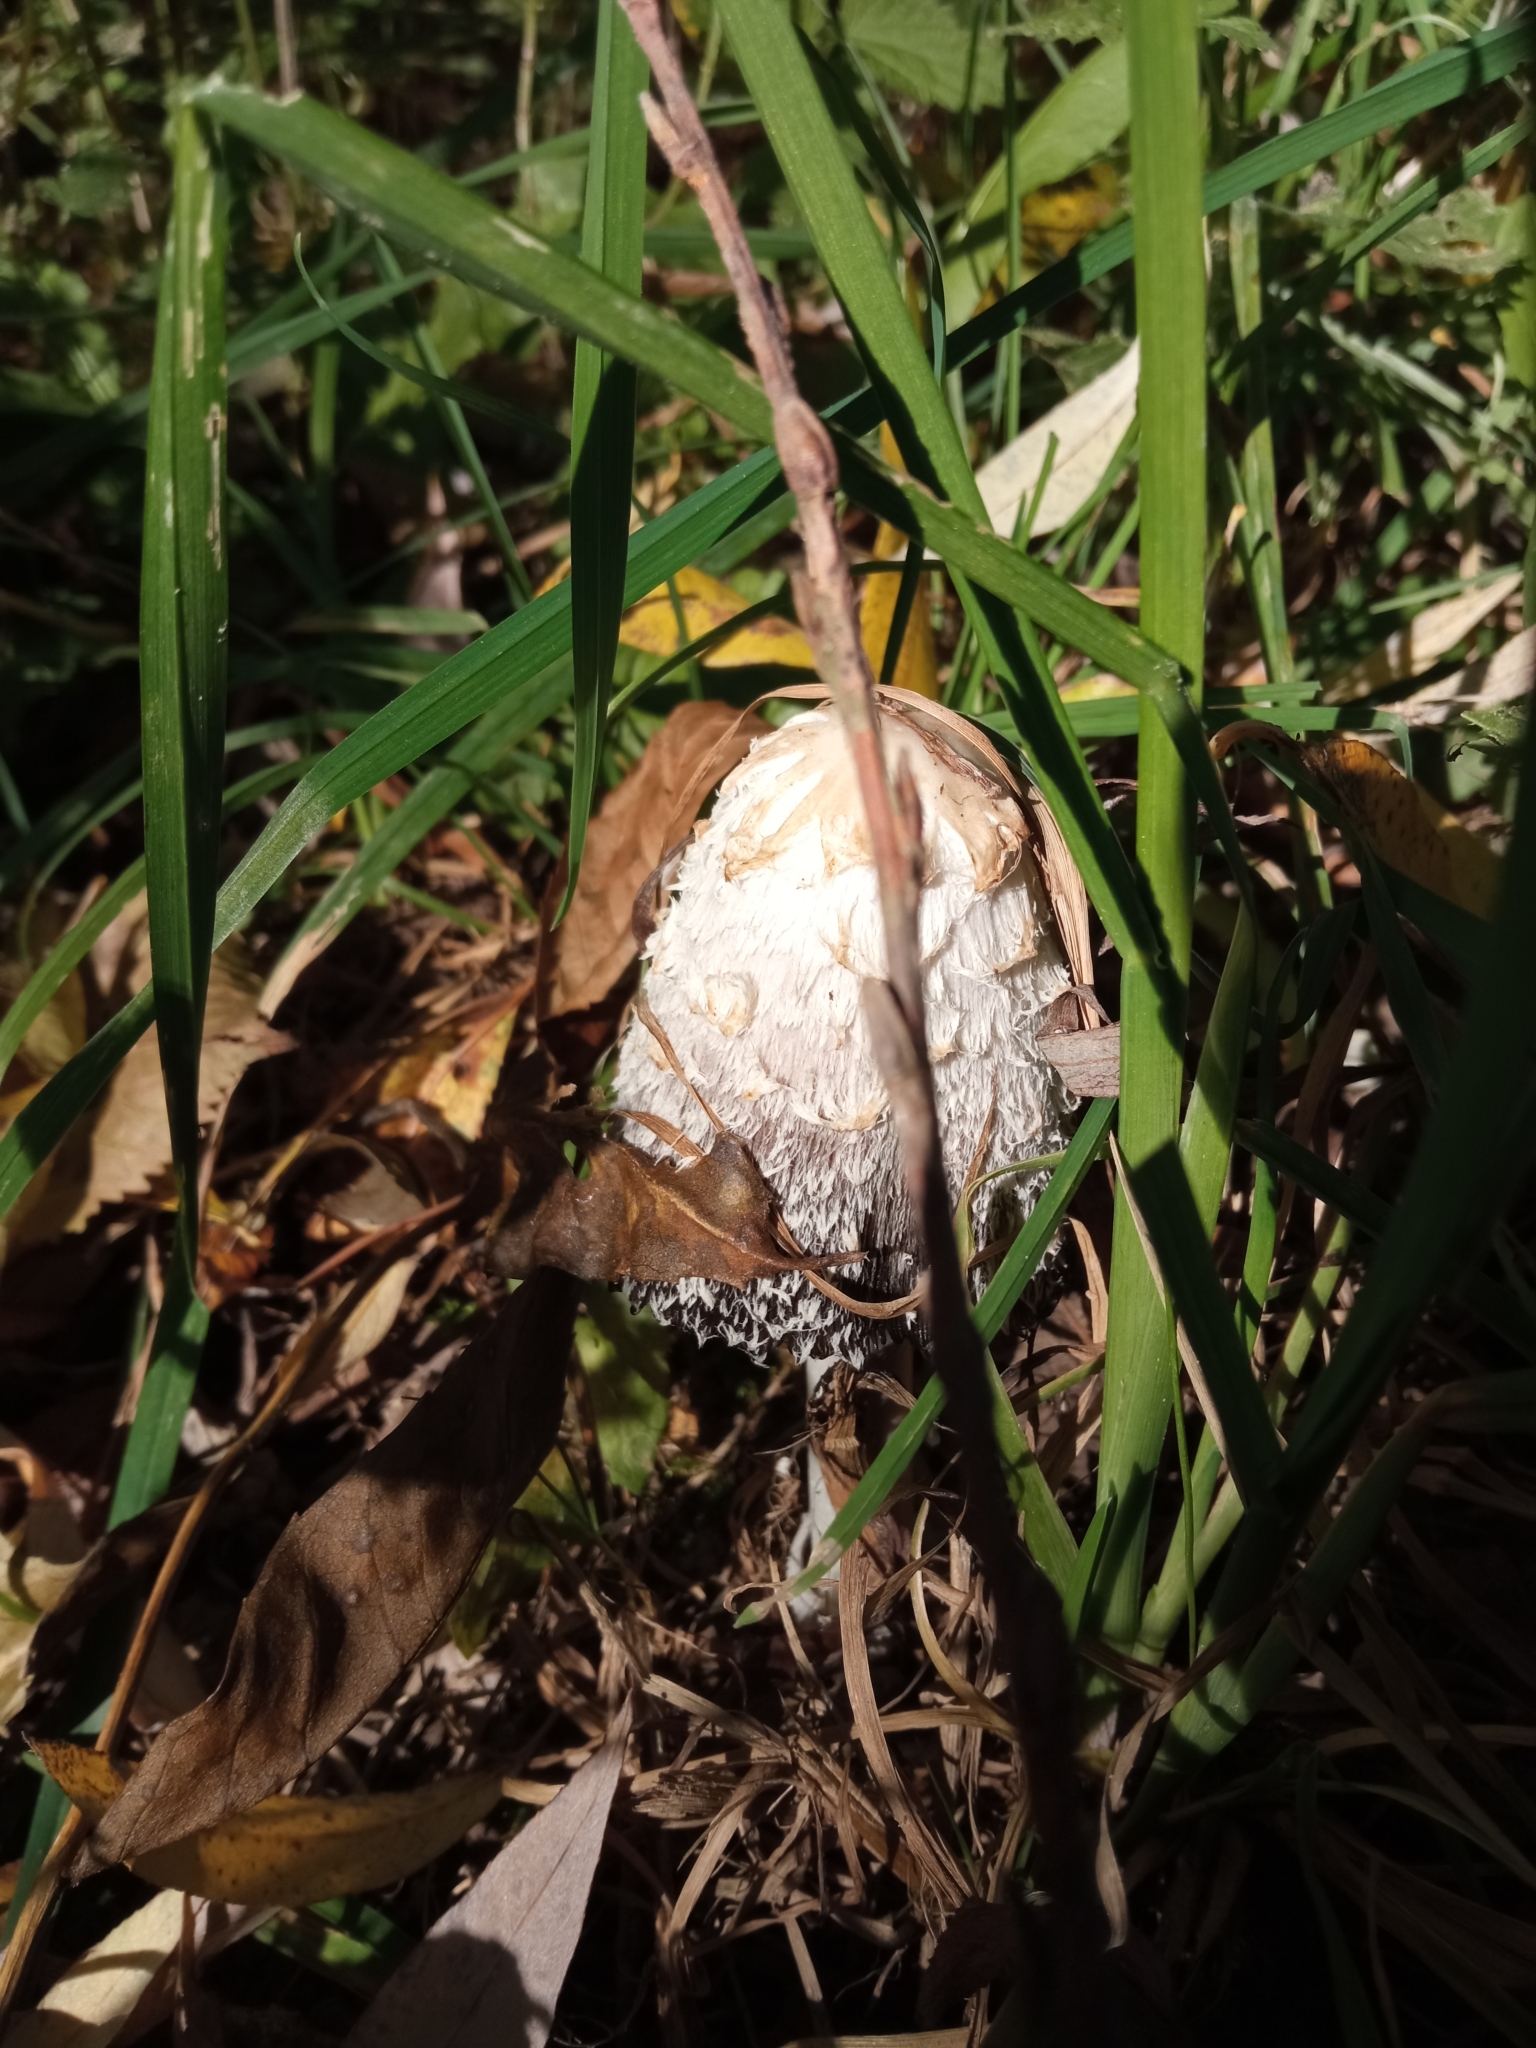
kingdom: Fungi
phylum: Basidiomycota
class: Agaricomycetes
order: Agaricales
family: Agaricaceae
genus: Coprinus
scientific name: Coprinus comatus
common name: Lawyer's wig
